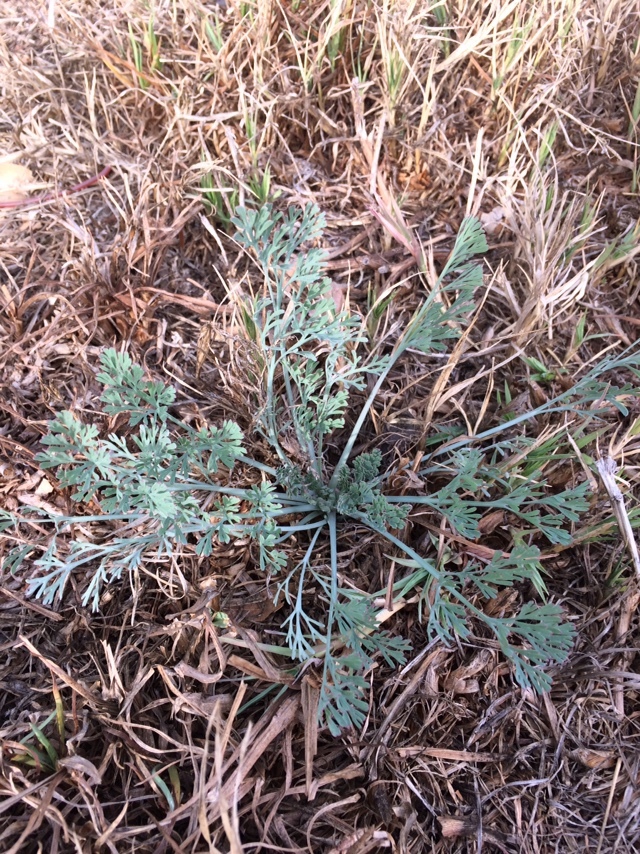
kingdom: Plantae
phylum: Tracheophyta
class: Magnoliopsida
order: Ranunculales
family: Papaveraceae
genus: Eschscholzia
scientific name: Eschscholzia californica
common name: California poppy
